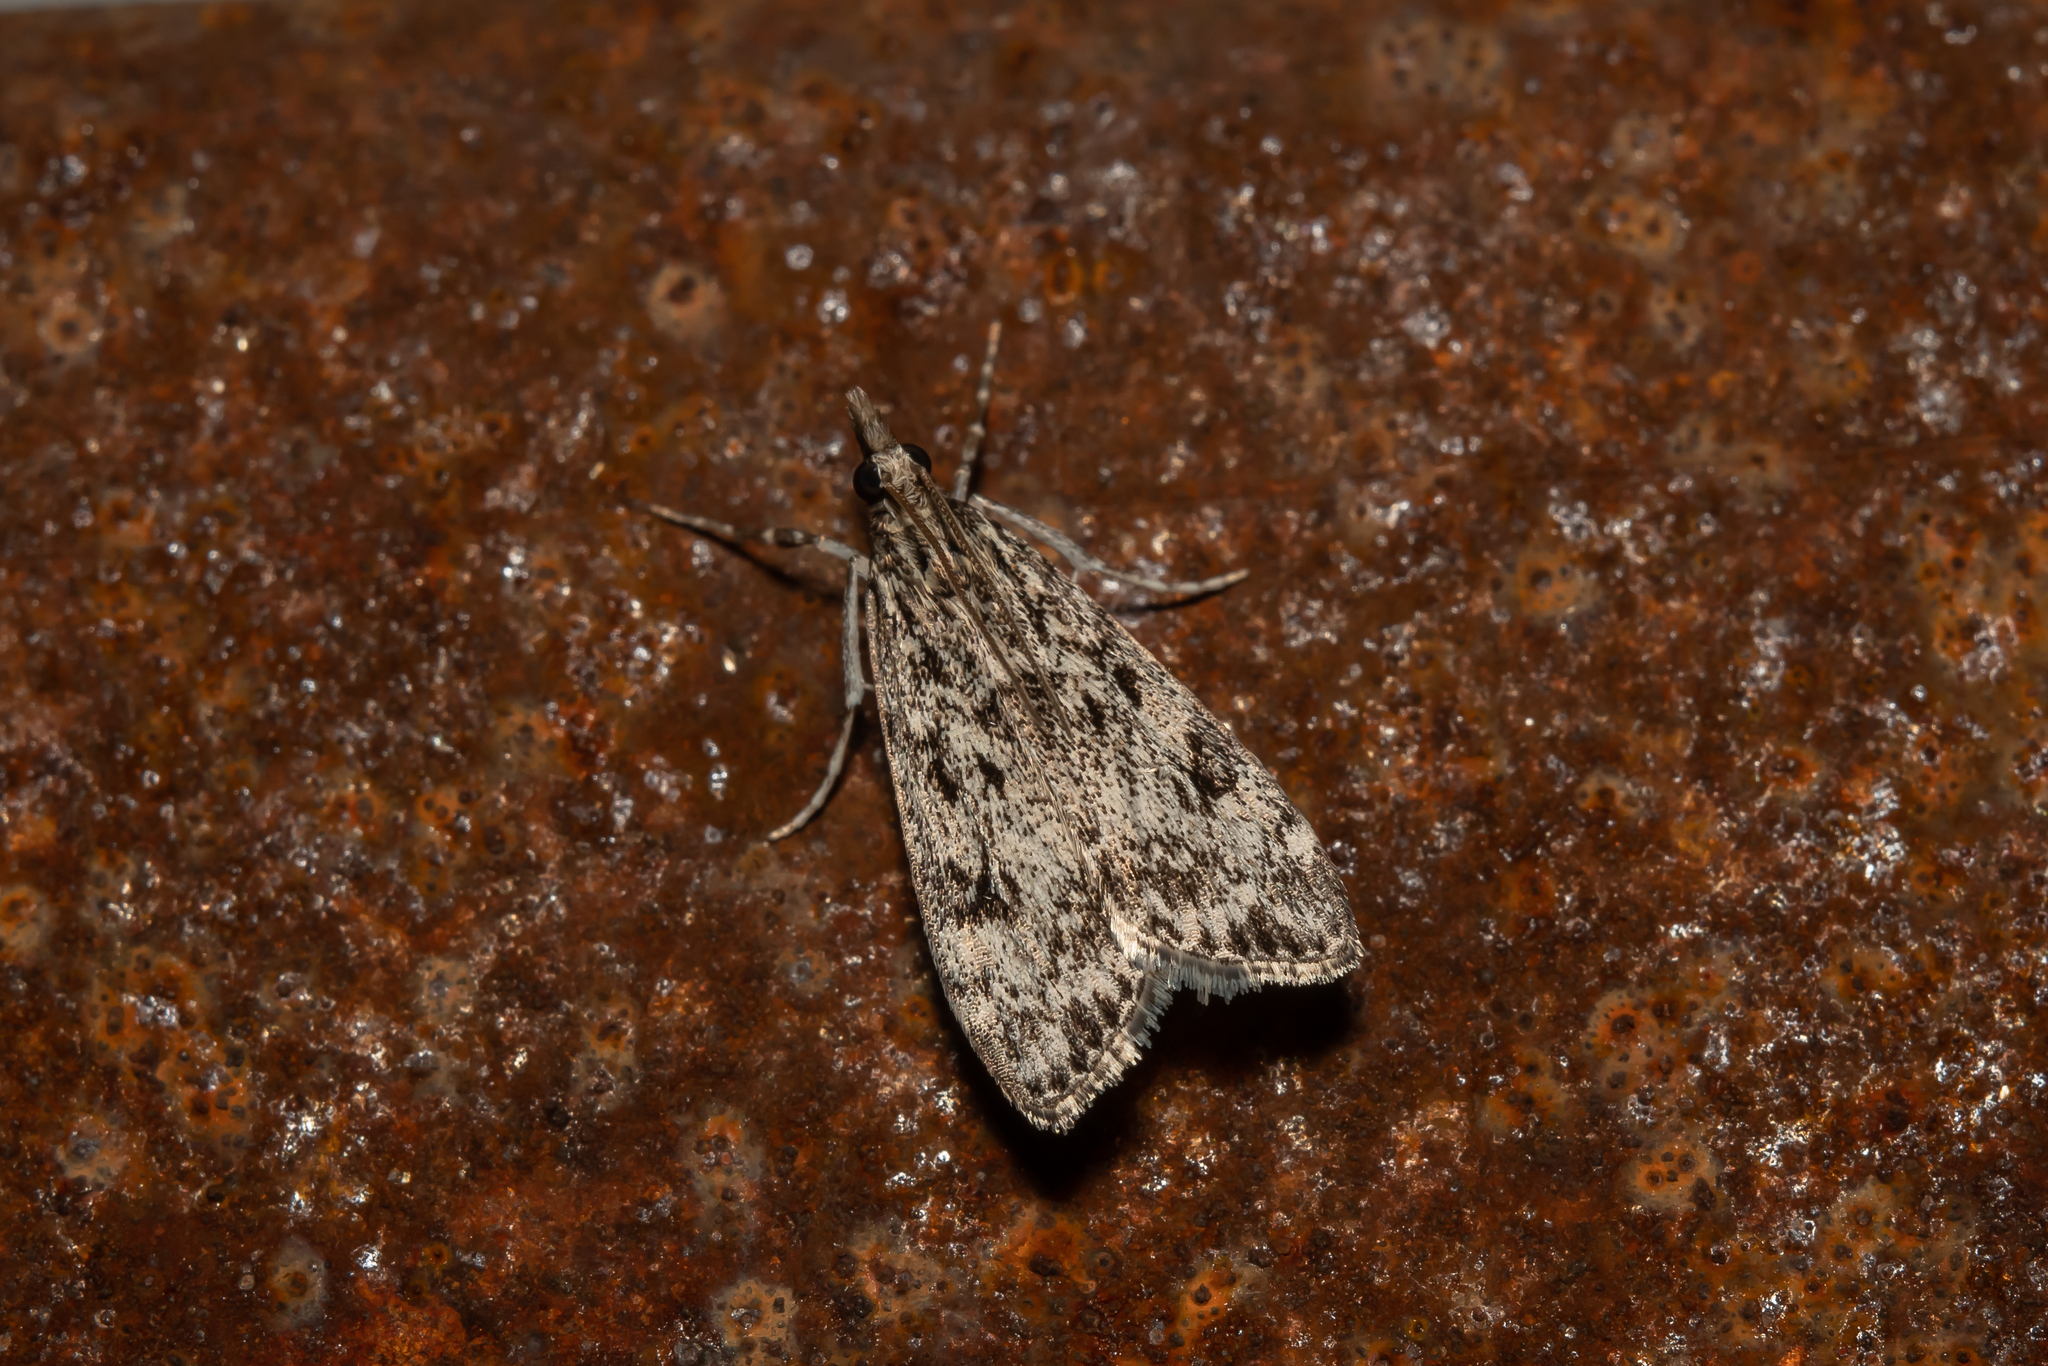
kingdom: Animalia
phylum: Arthropoda
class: Insecta
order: Lepidoptera
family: Crambidae
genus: Eudonia
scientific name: Eudonia truncicolella
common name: Ground-moss grey
